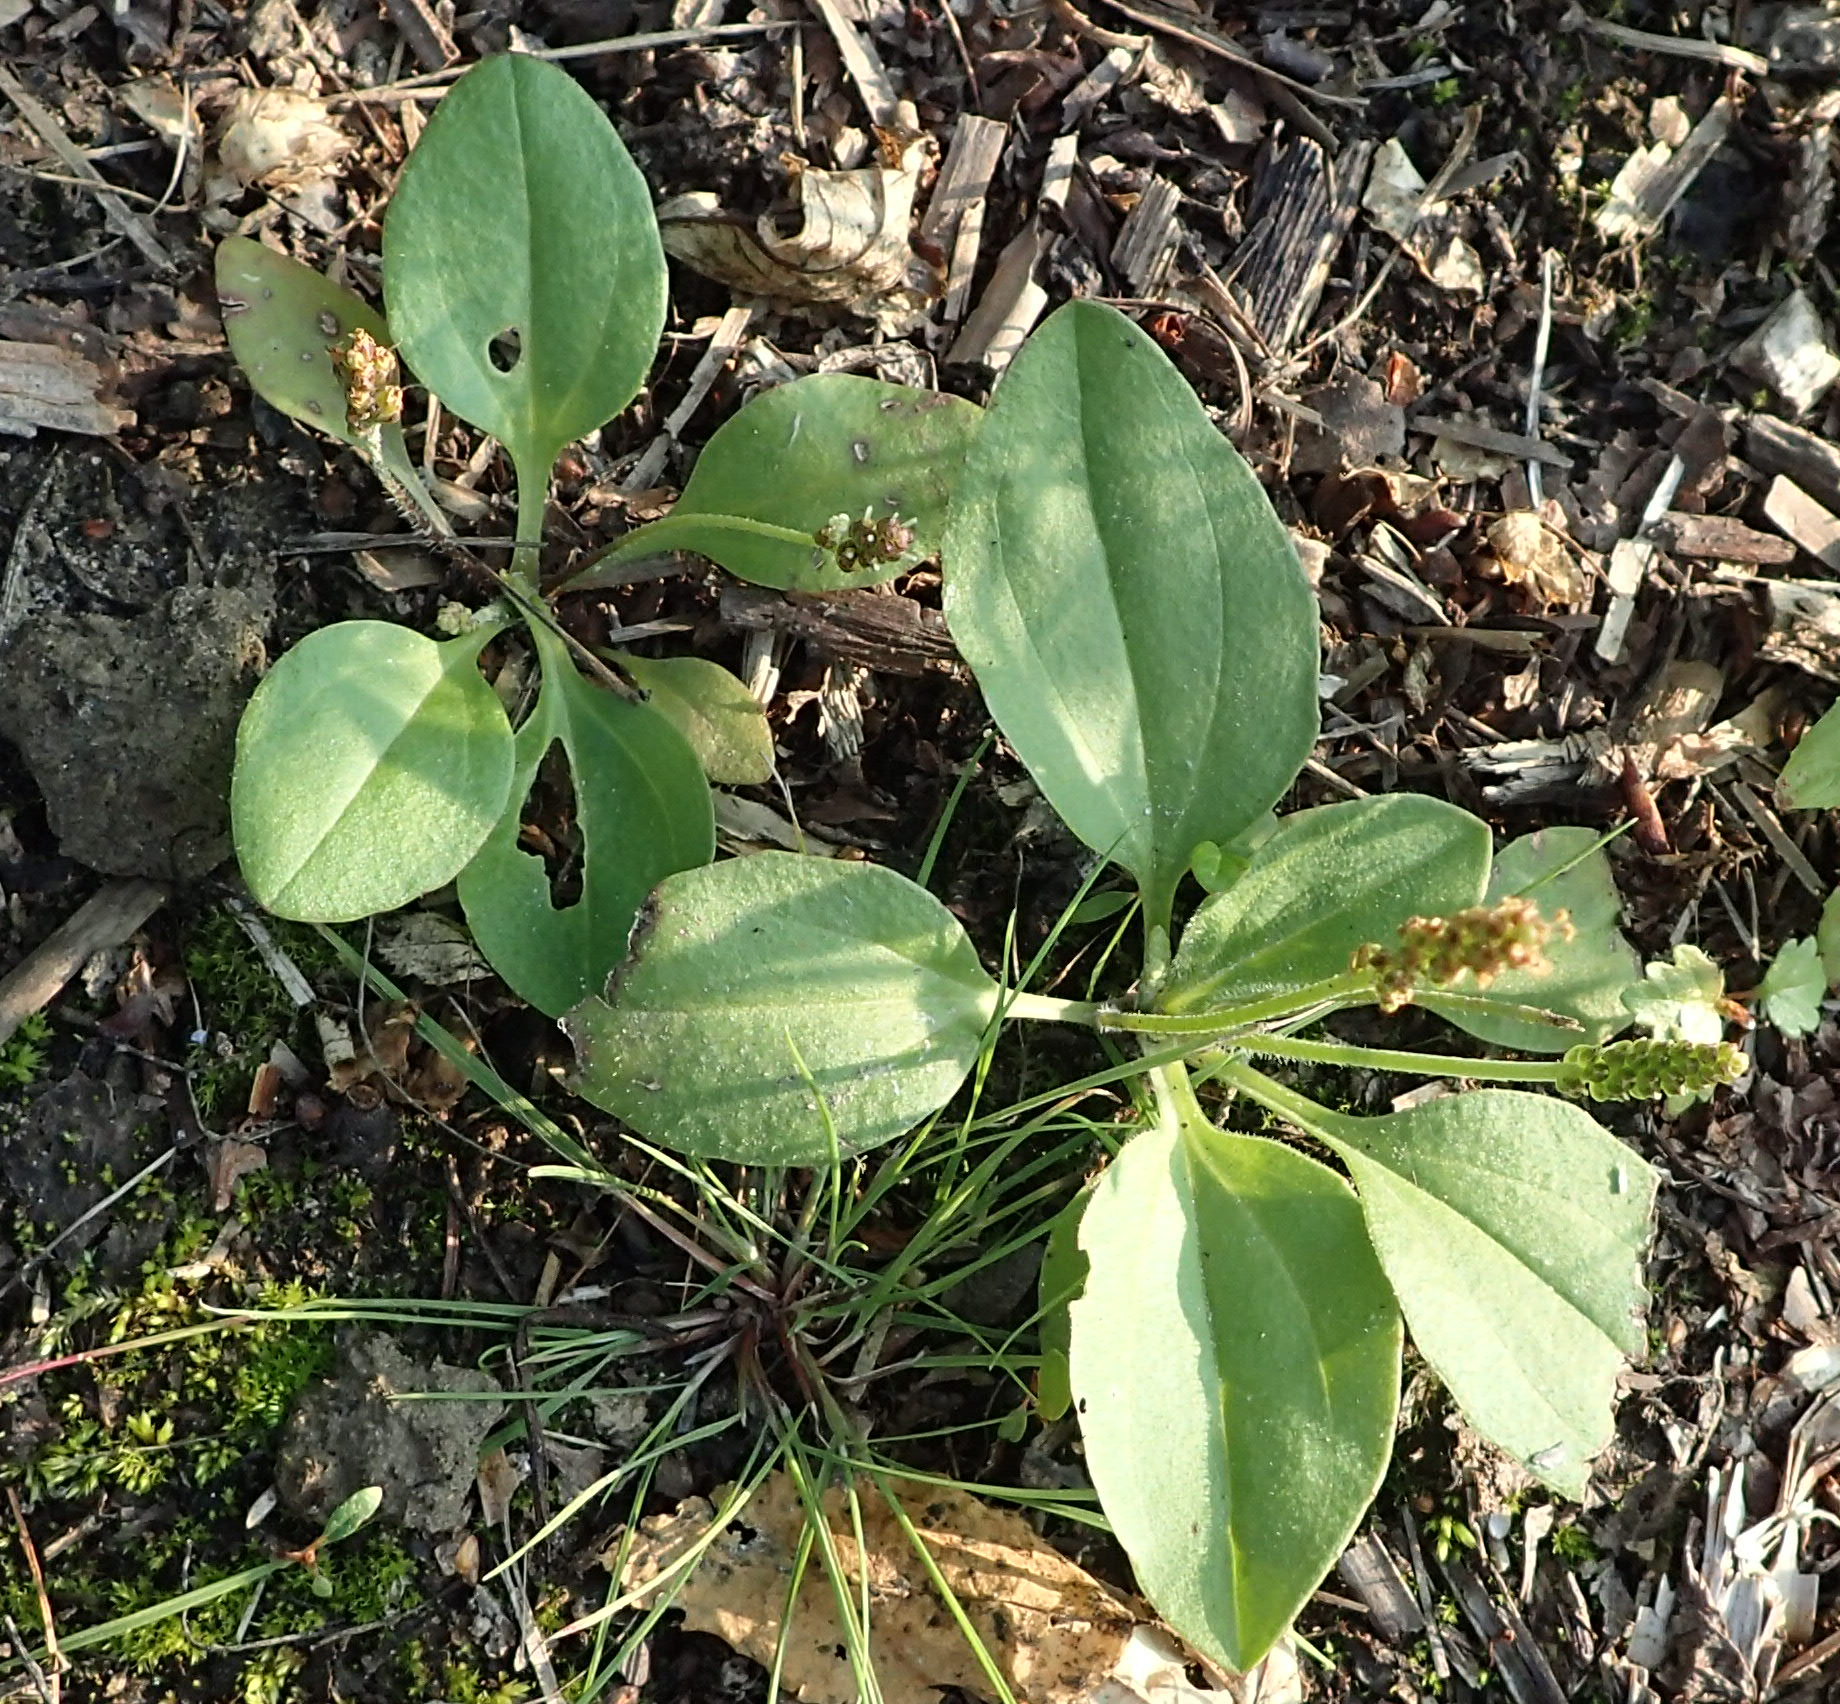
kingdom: Plantae
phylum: Tracheophyta
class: Magnoliopsida
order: Lamiales
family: Plantaginaceae
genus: Plantago
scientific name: Plantago major
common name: Common plantain
